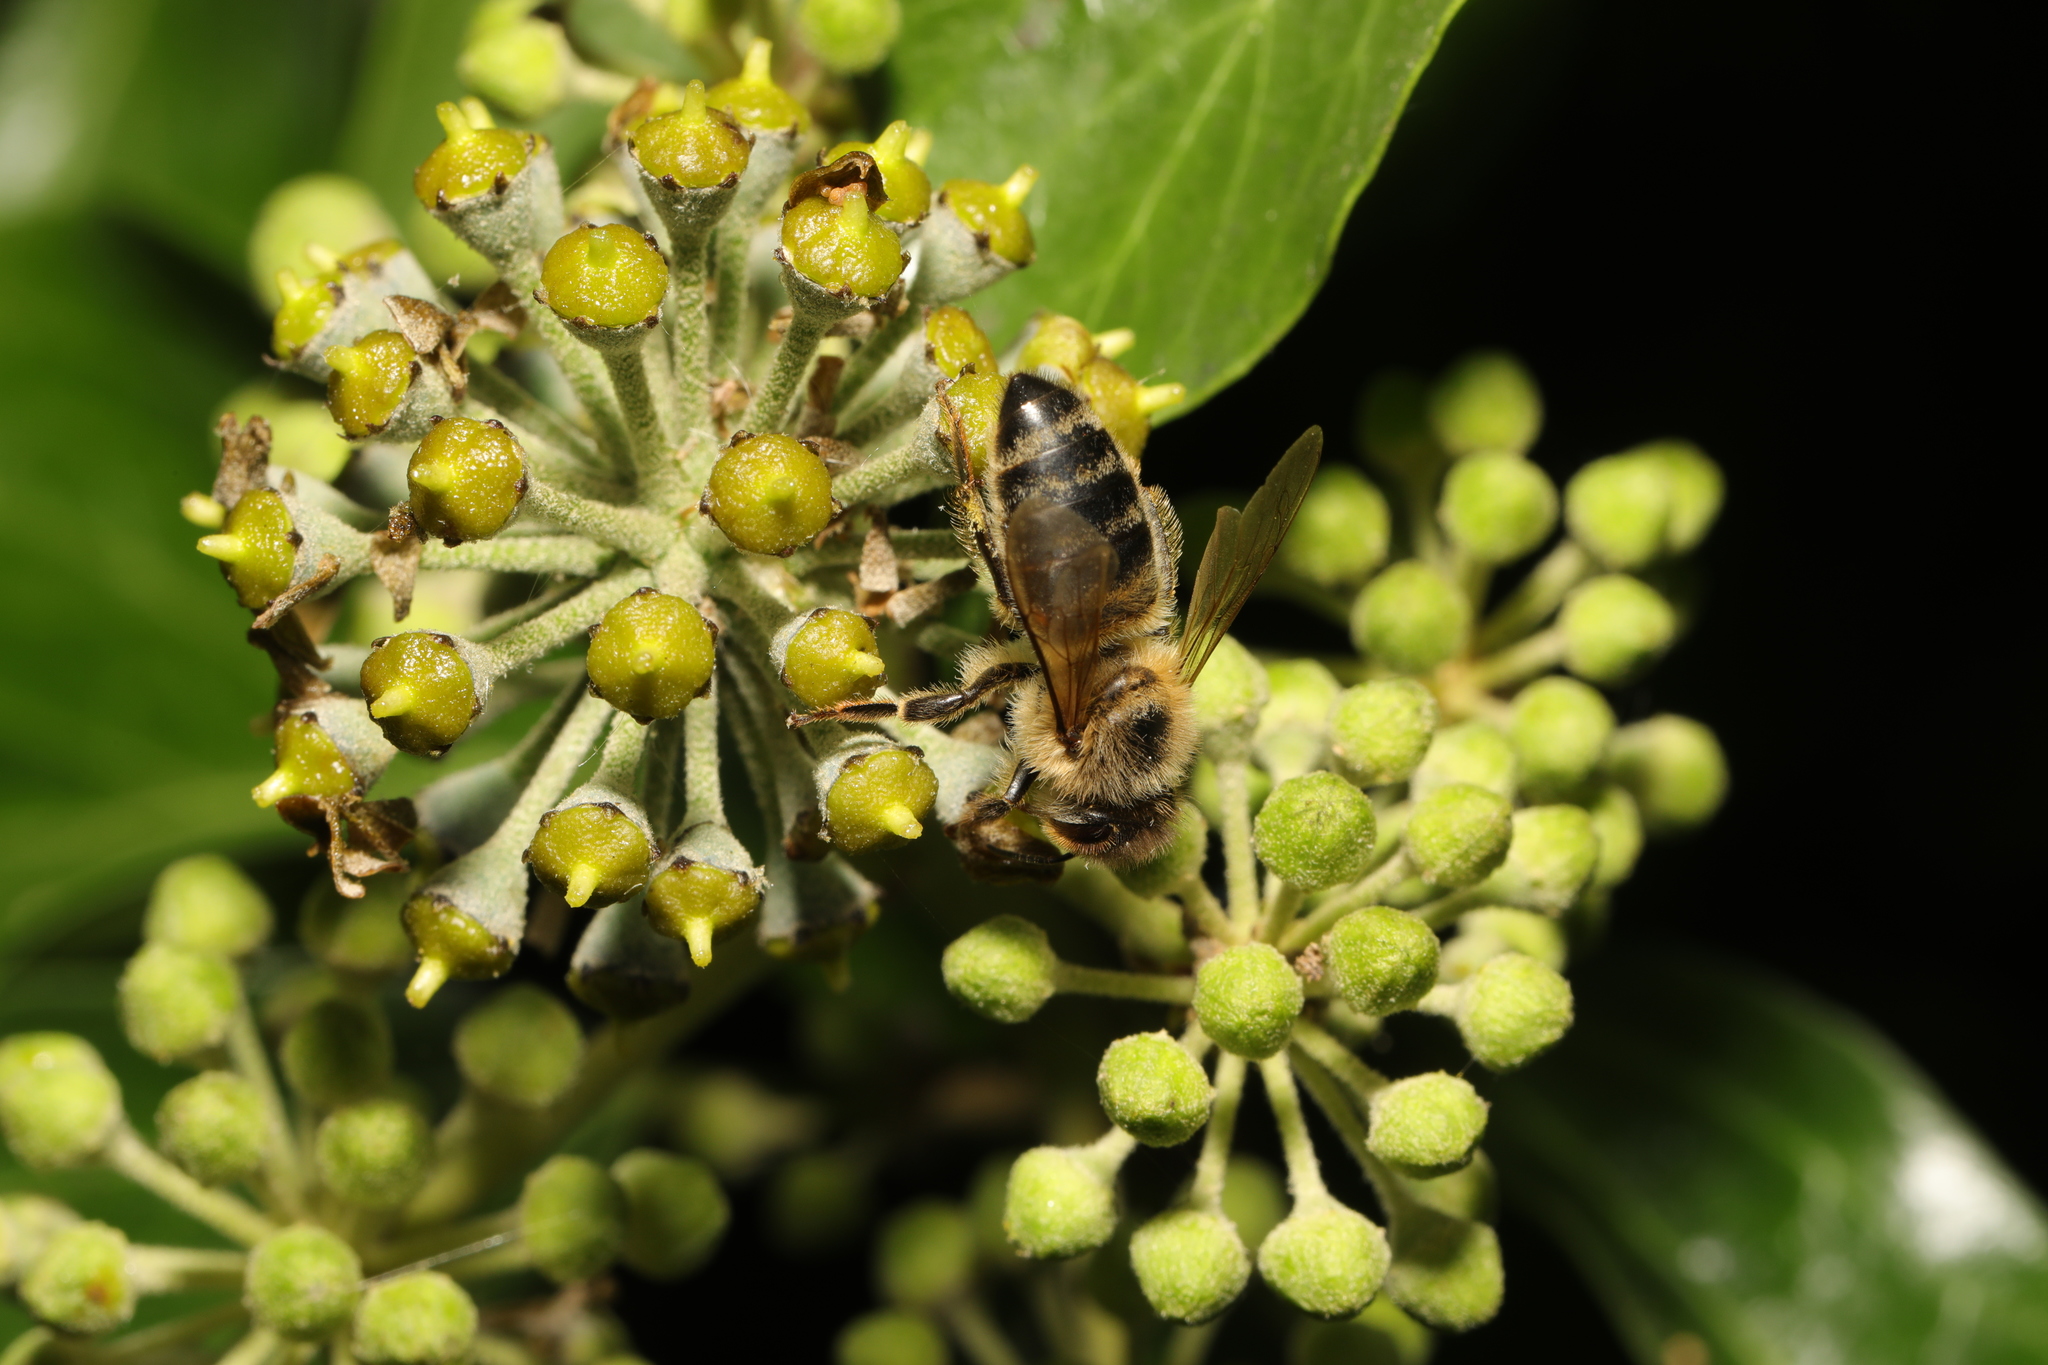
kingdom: Animalia
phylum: Arthropoda
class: Insecta
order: Hymenoptera
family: Apidae
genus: Apis
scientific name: Apis mellifera
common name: Honey bee
